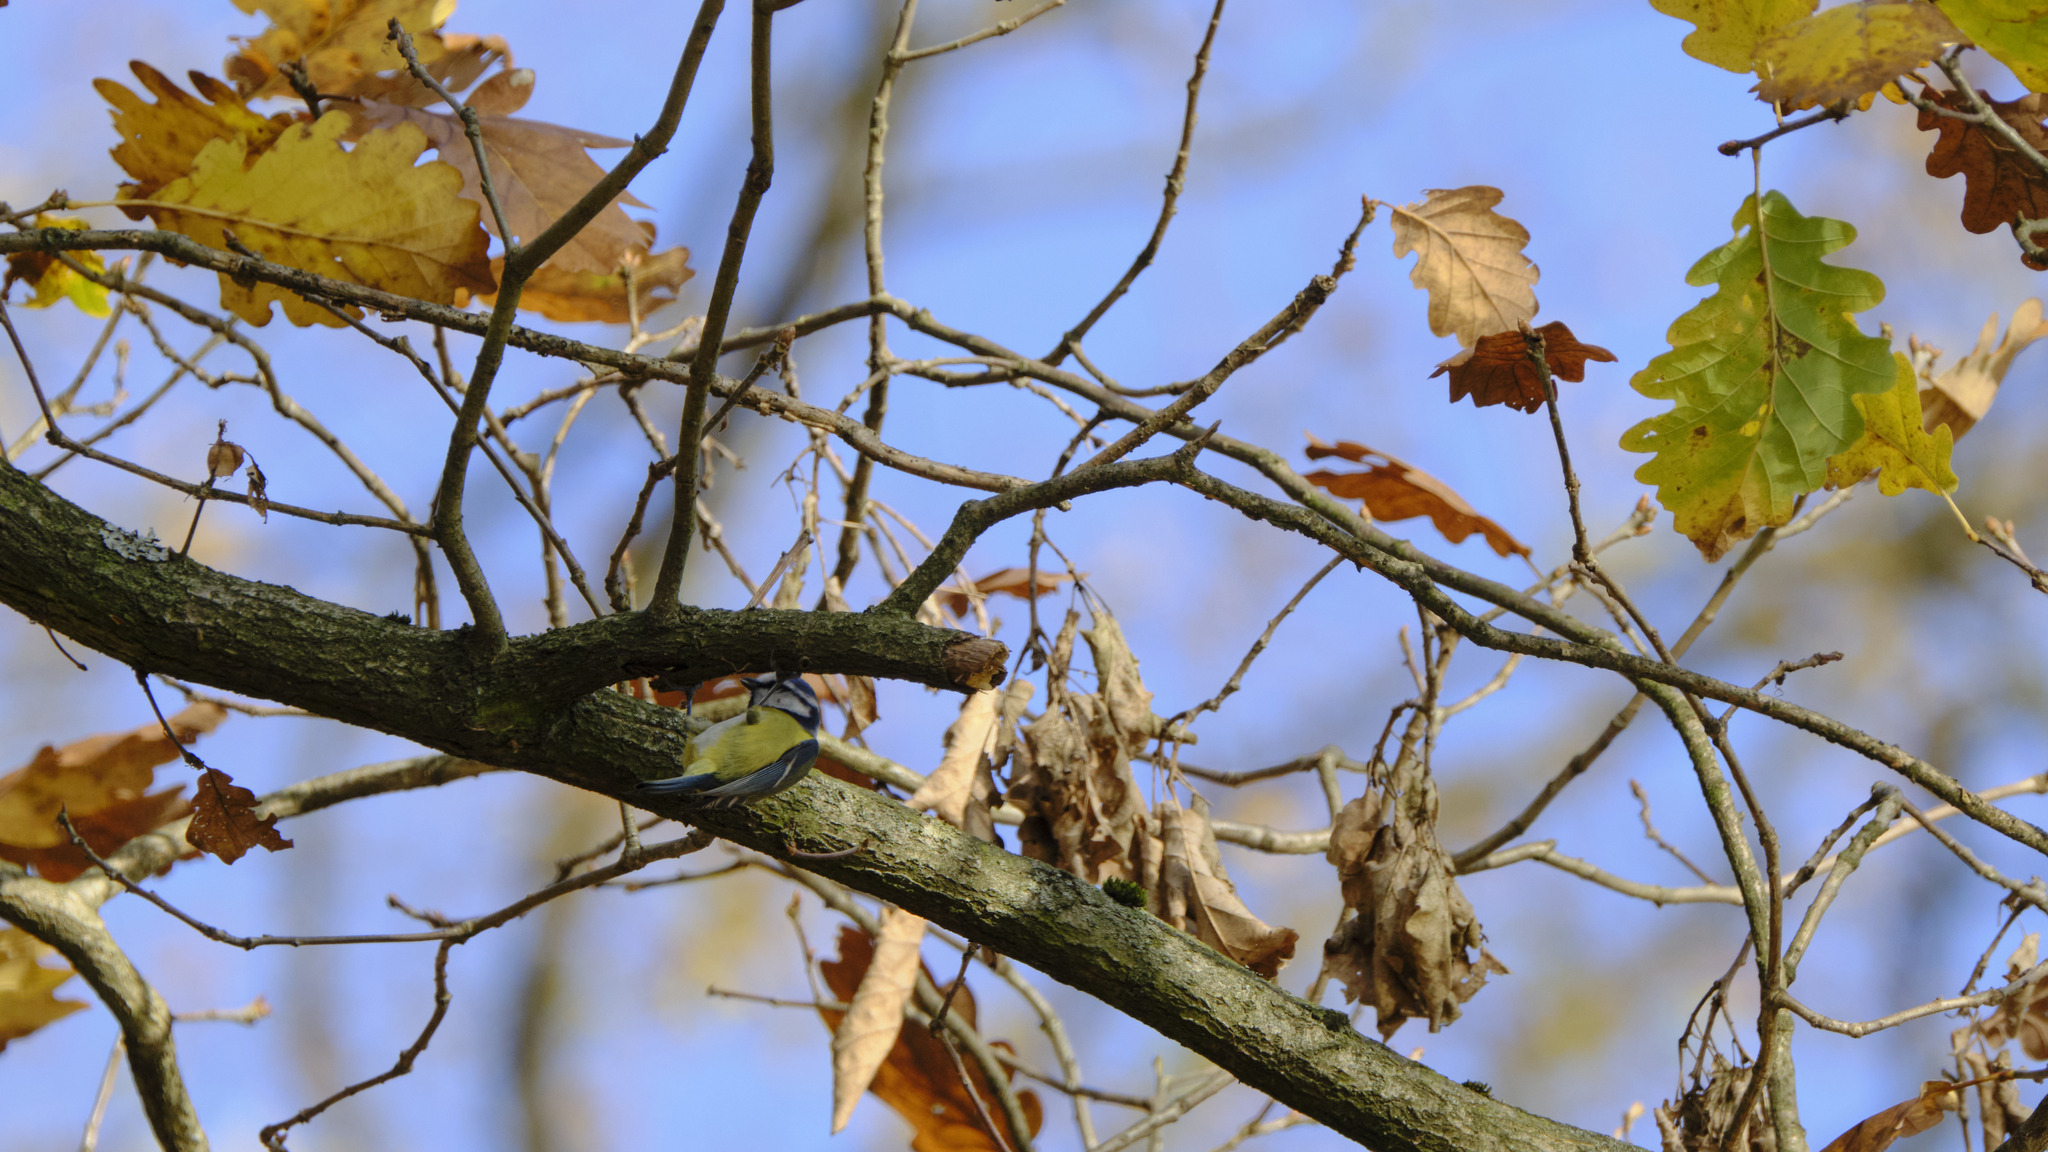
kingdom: Animalia
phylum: Chordata
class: Aves
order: Passeriformes
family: Paridae
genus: Cyanistes
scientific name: Cyanistes caeruleus
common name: Eurasian blue tit
